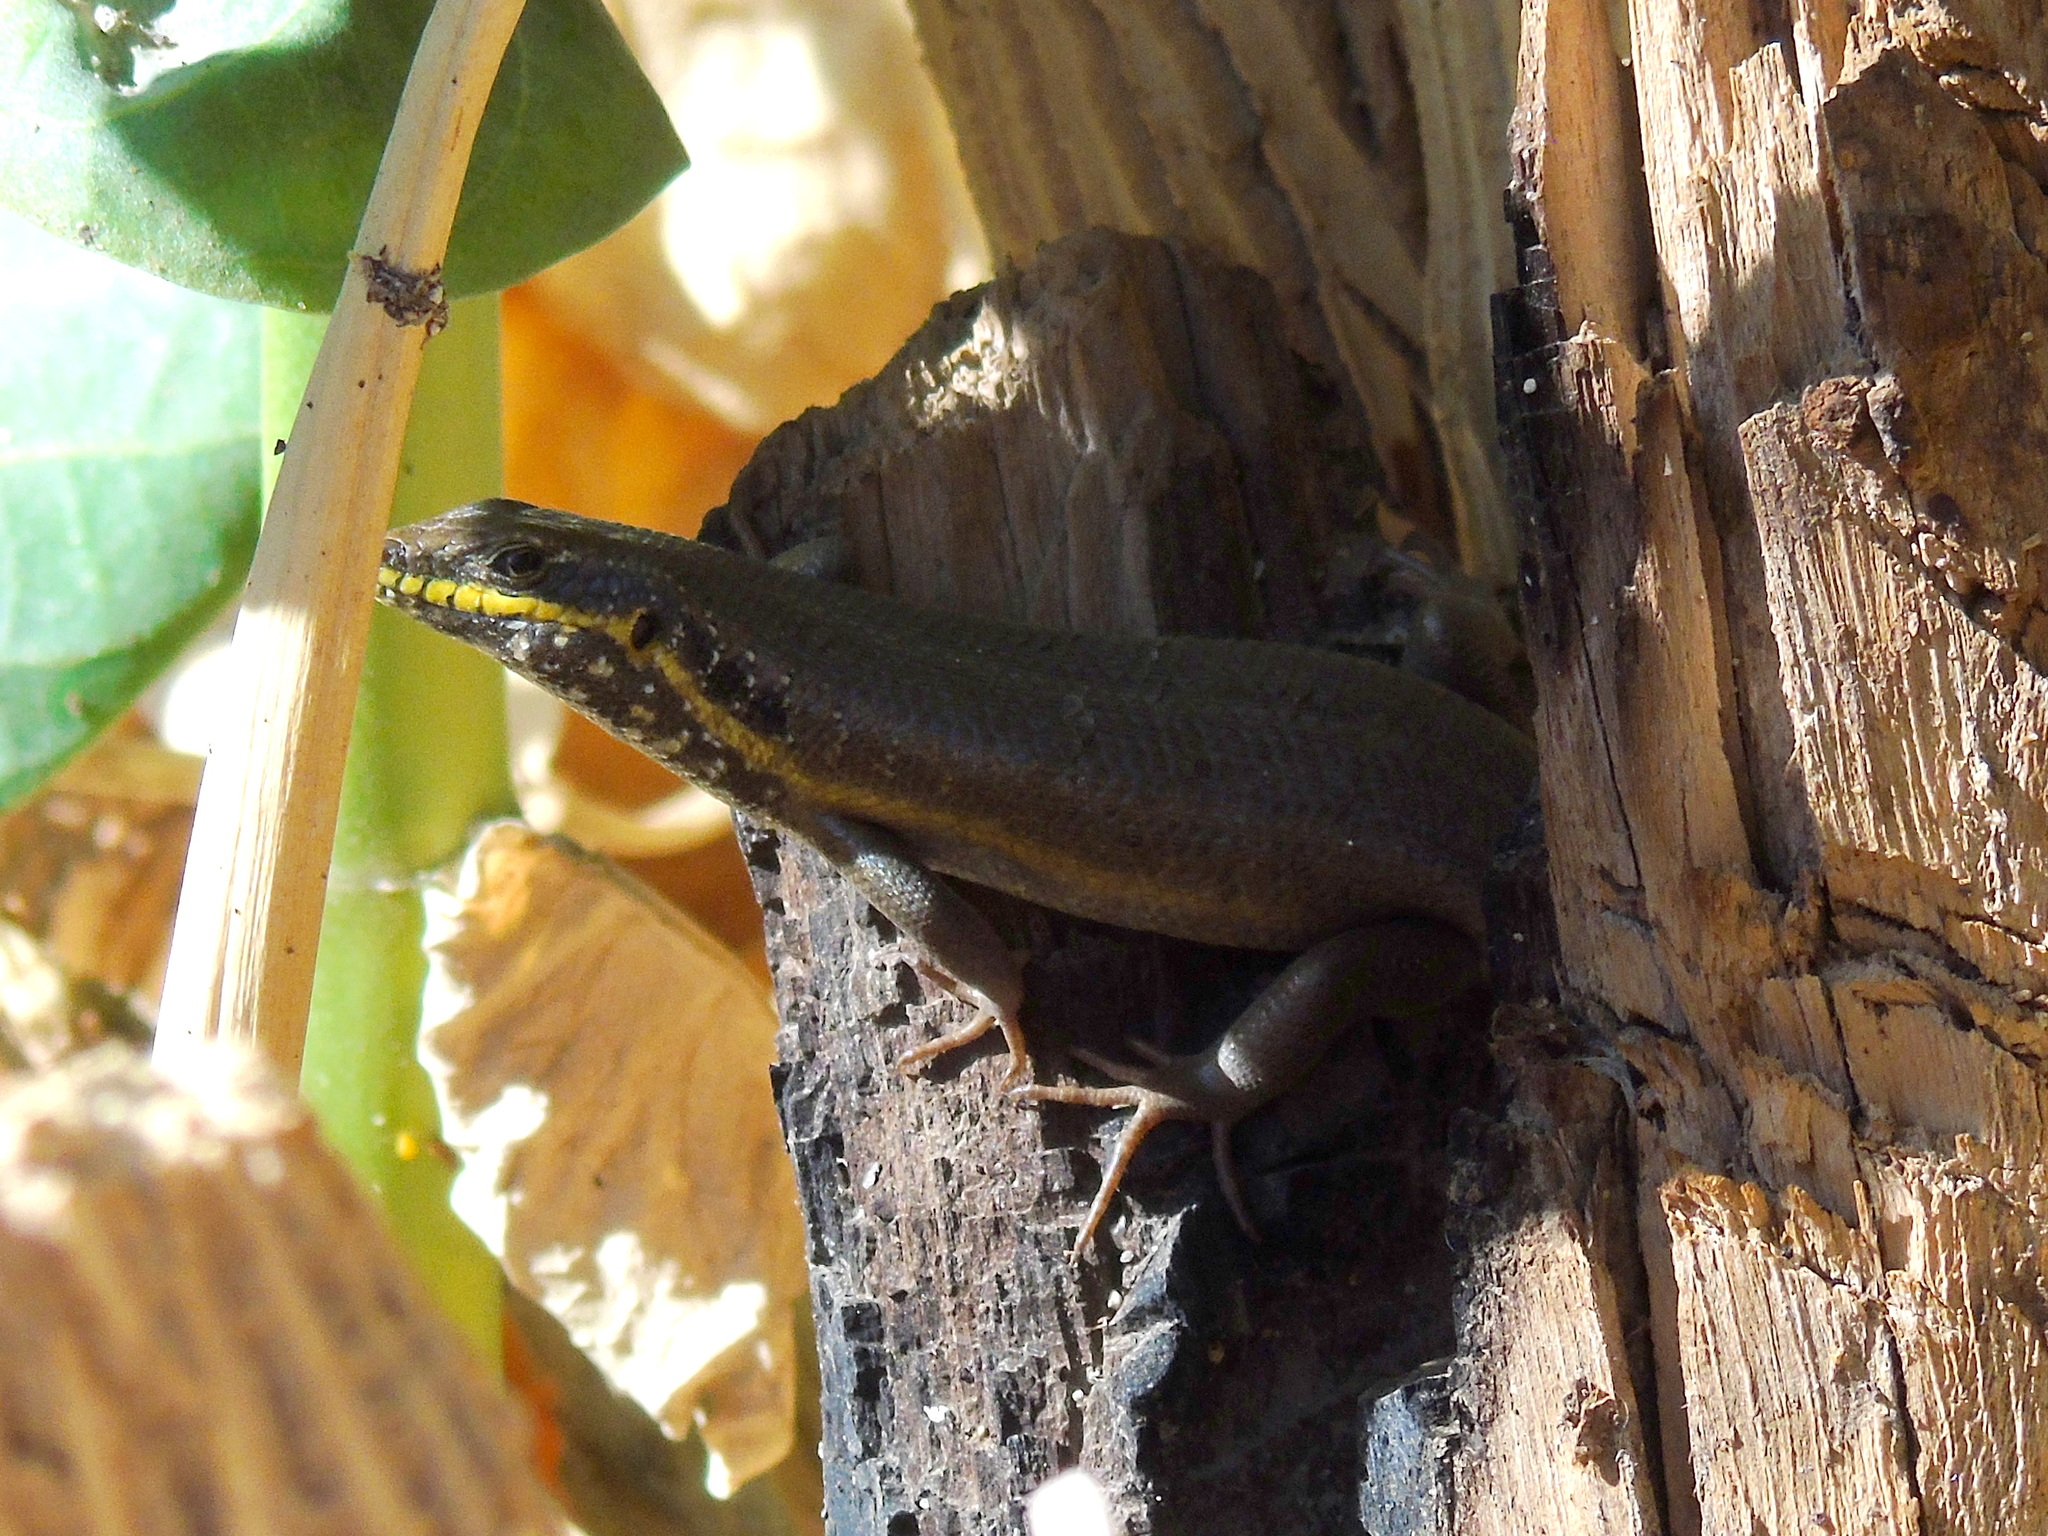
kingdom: Animalia
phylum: Chordata
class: Squamata
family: Scincidae
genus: Trachylepis
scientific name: Trachylepis quinquetaeniata
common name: African five-lined skink
